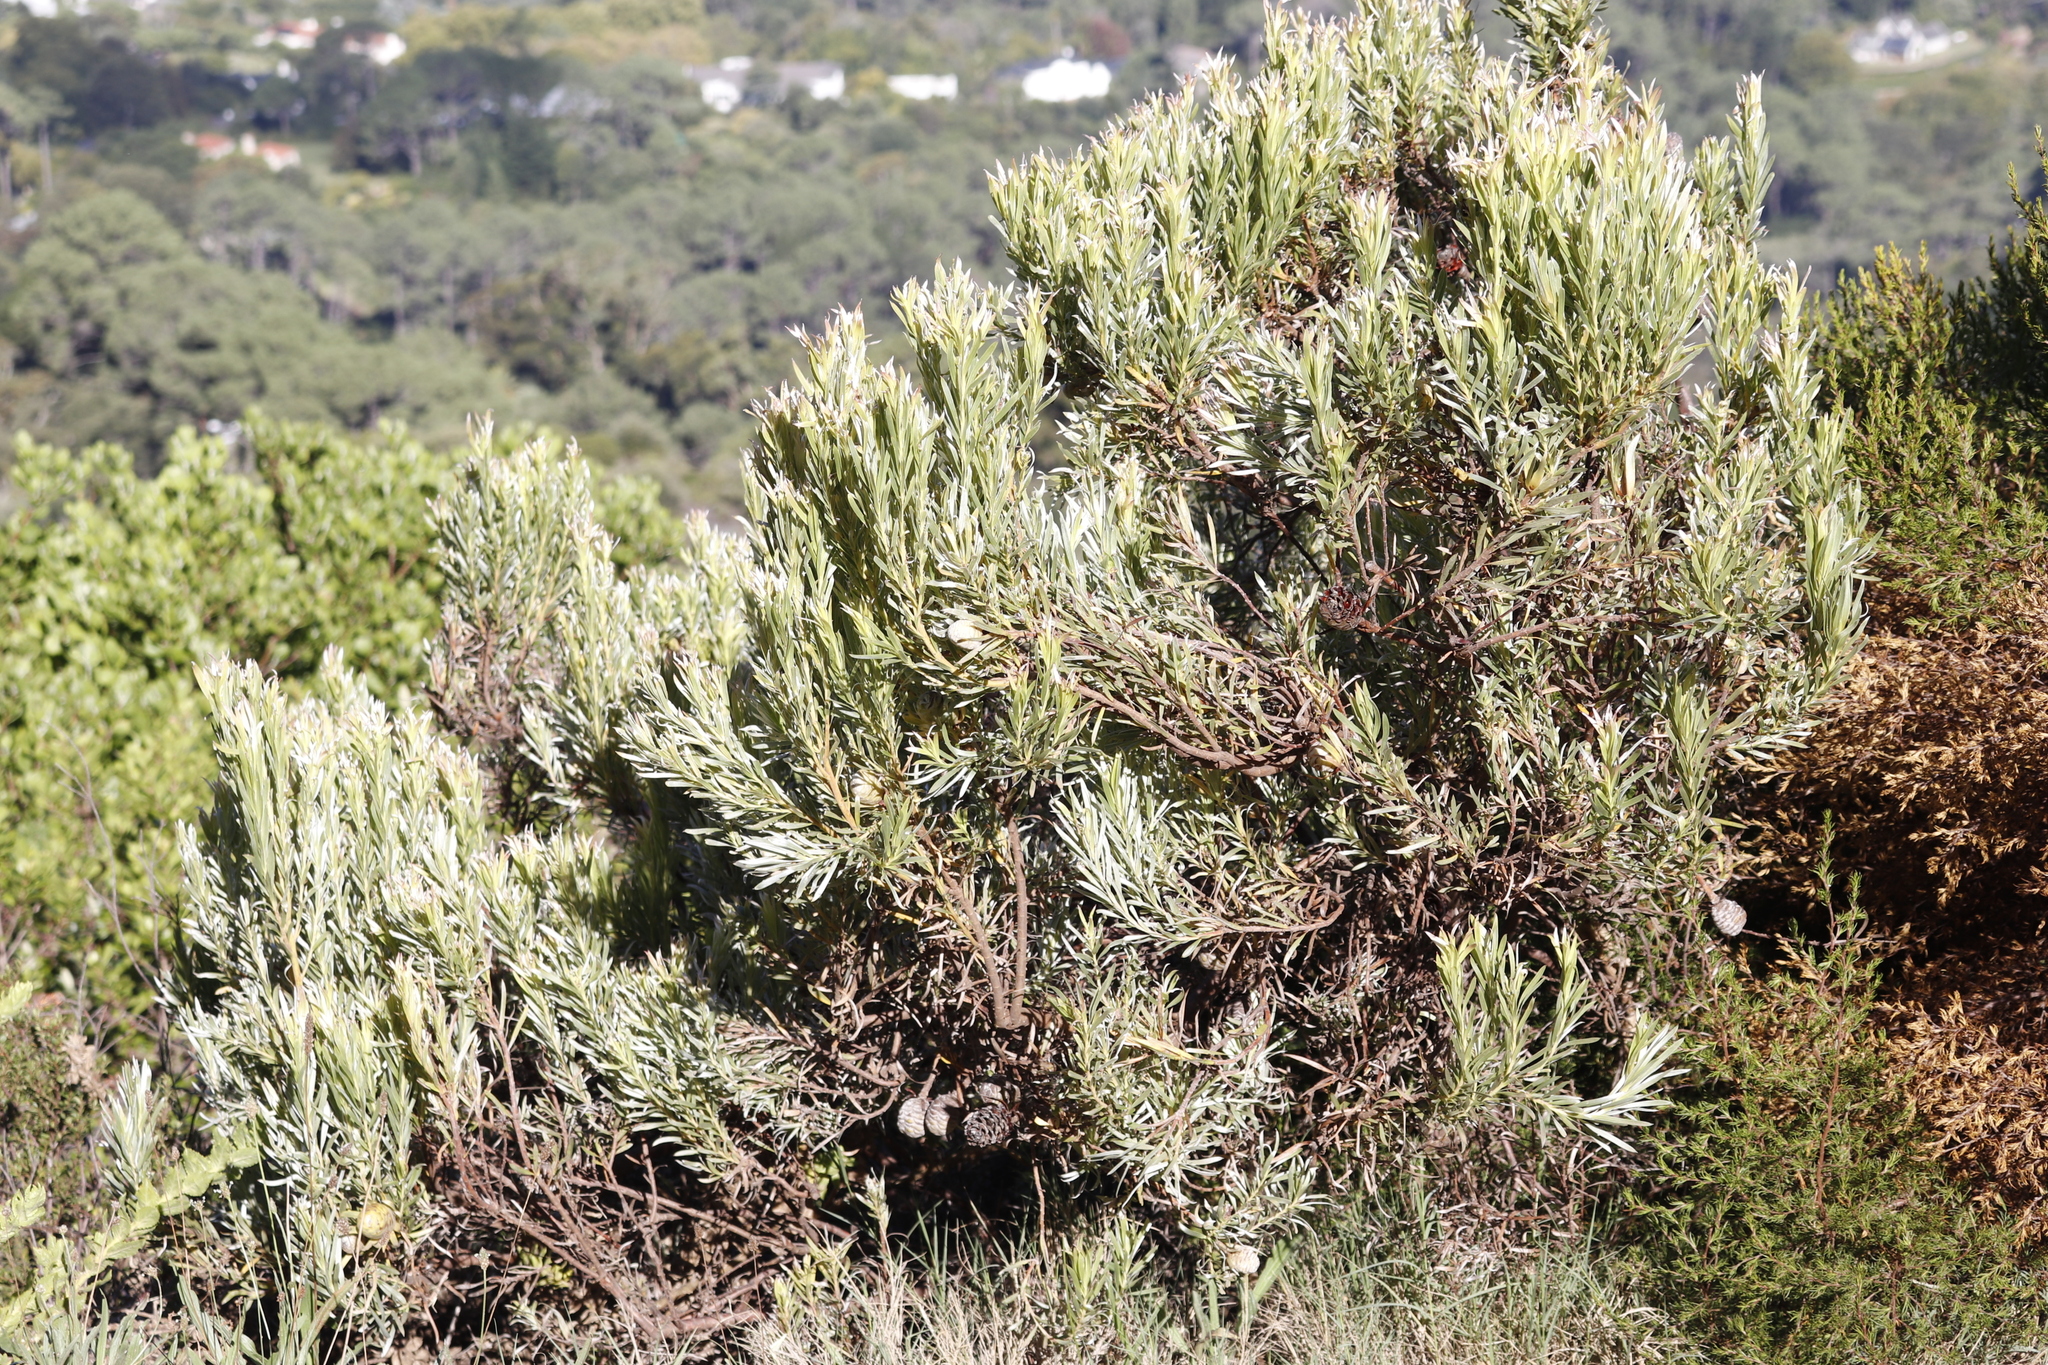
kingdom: Plantae
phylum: Tracheophyta
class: Magnoliopsida
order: Proteales
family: Proteaceae
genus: Leucadendron
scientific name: Leucadendron xanthoconus
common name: Sickle-leaf conebush
